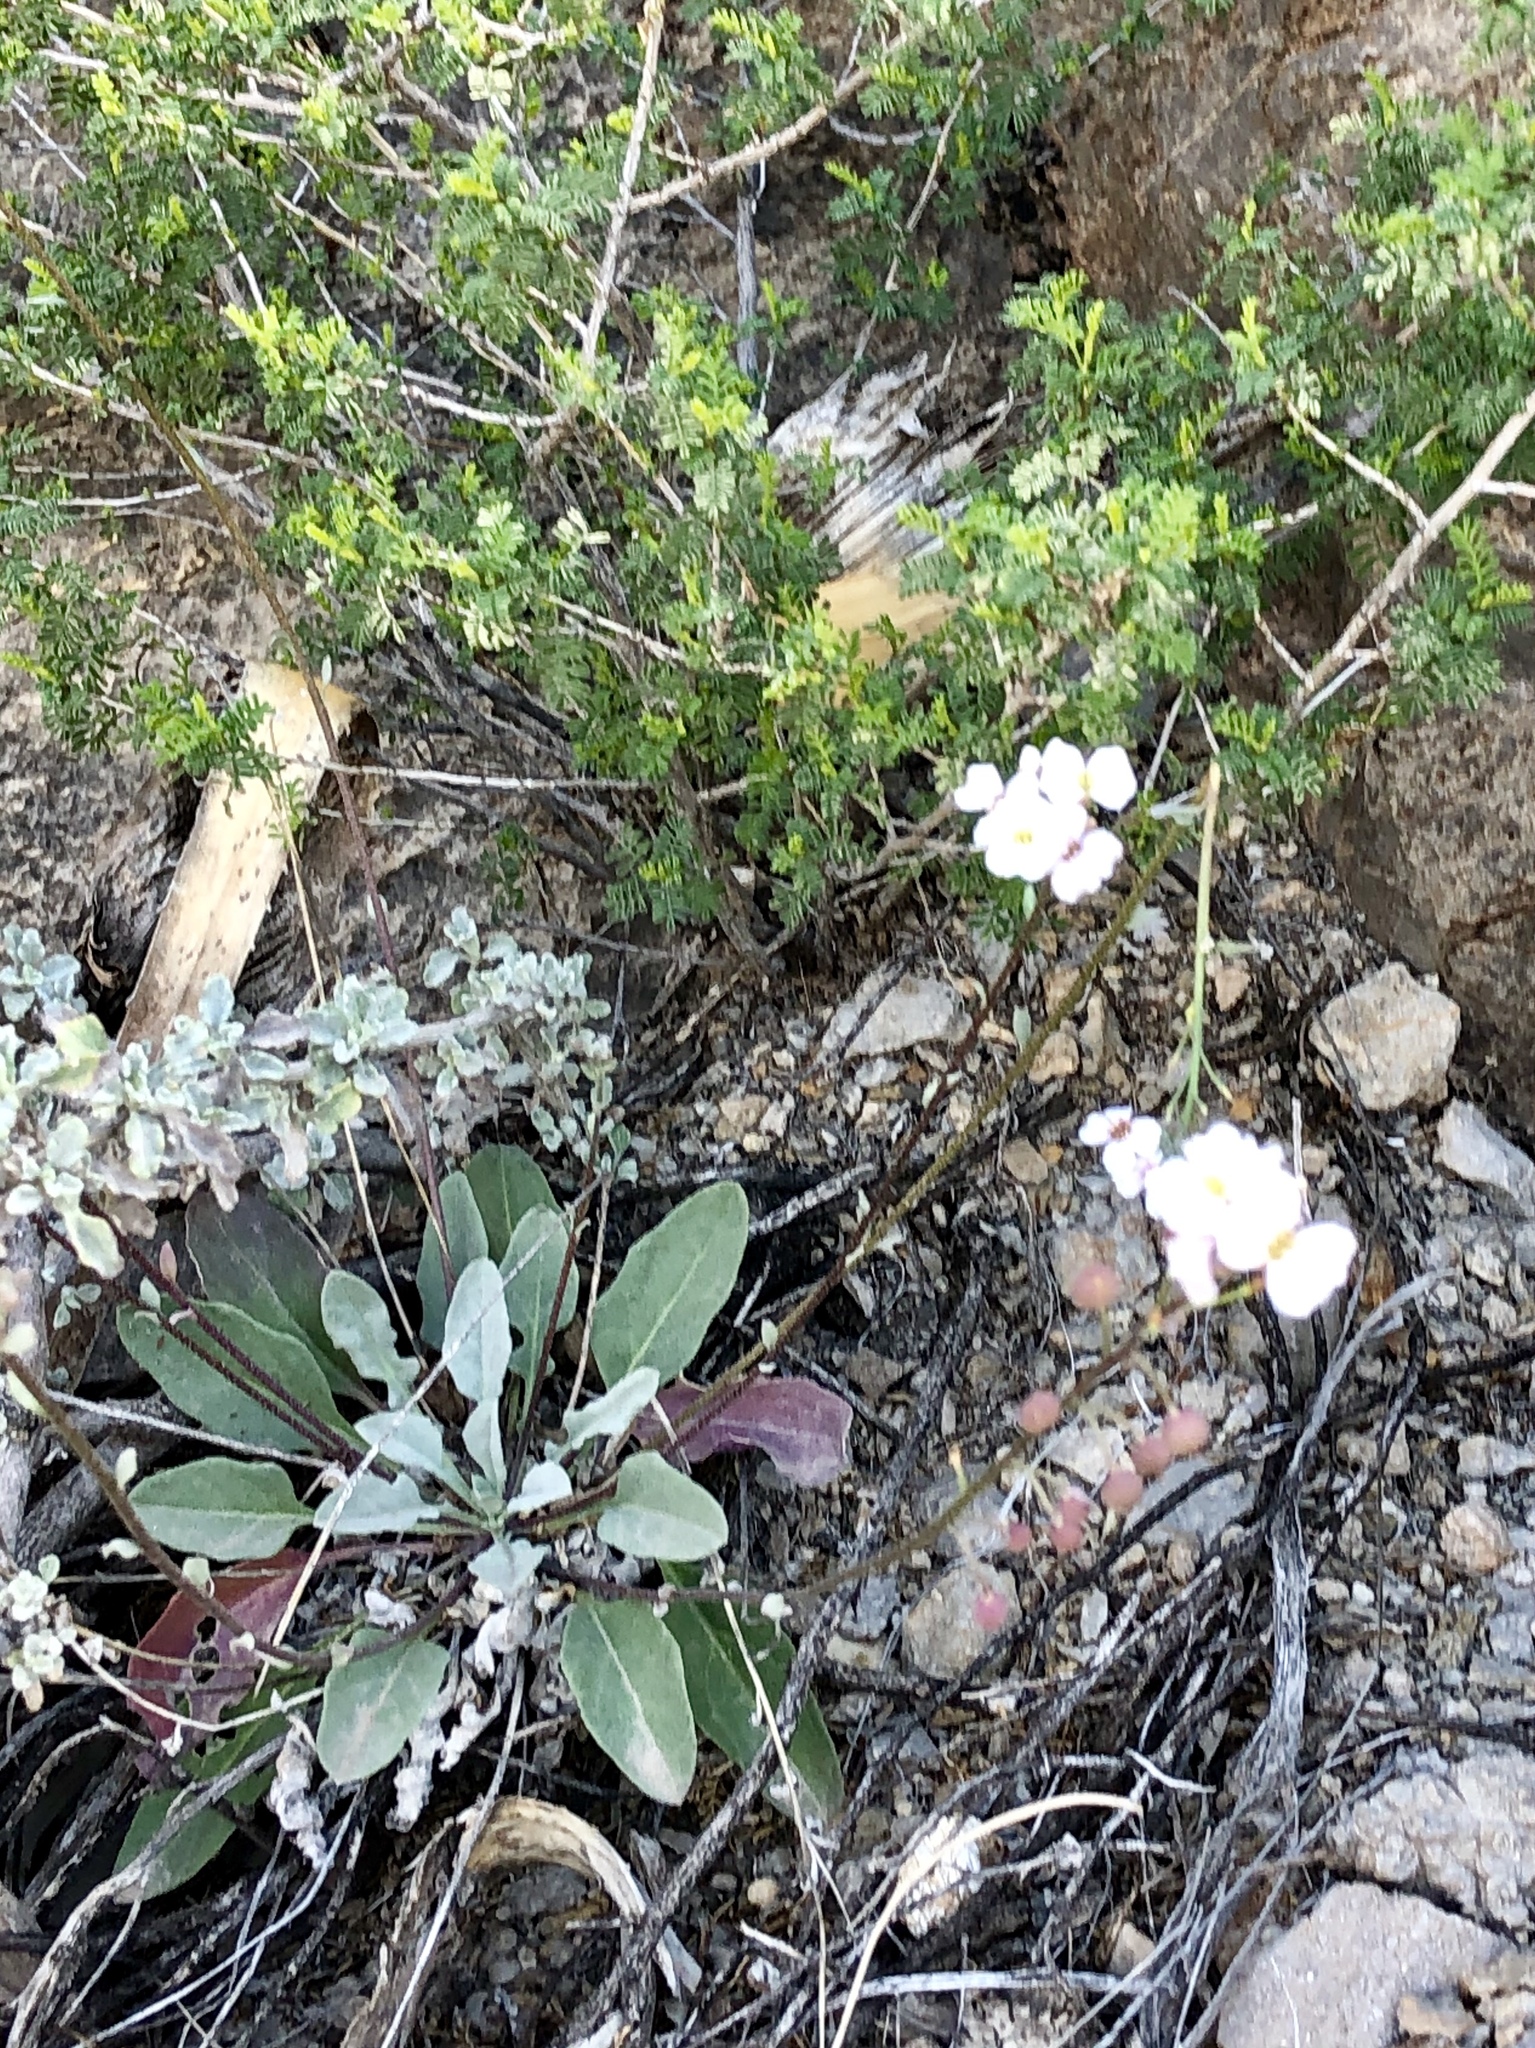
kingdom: Plantae
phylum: Tracheophyta
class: Magnoliopsida
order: Brassicales
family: Brassicaceae
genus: Physaria
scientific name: Physaria purpurea
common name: Rose bladderpod
